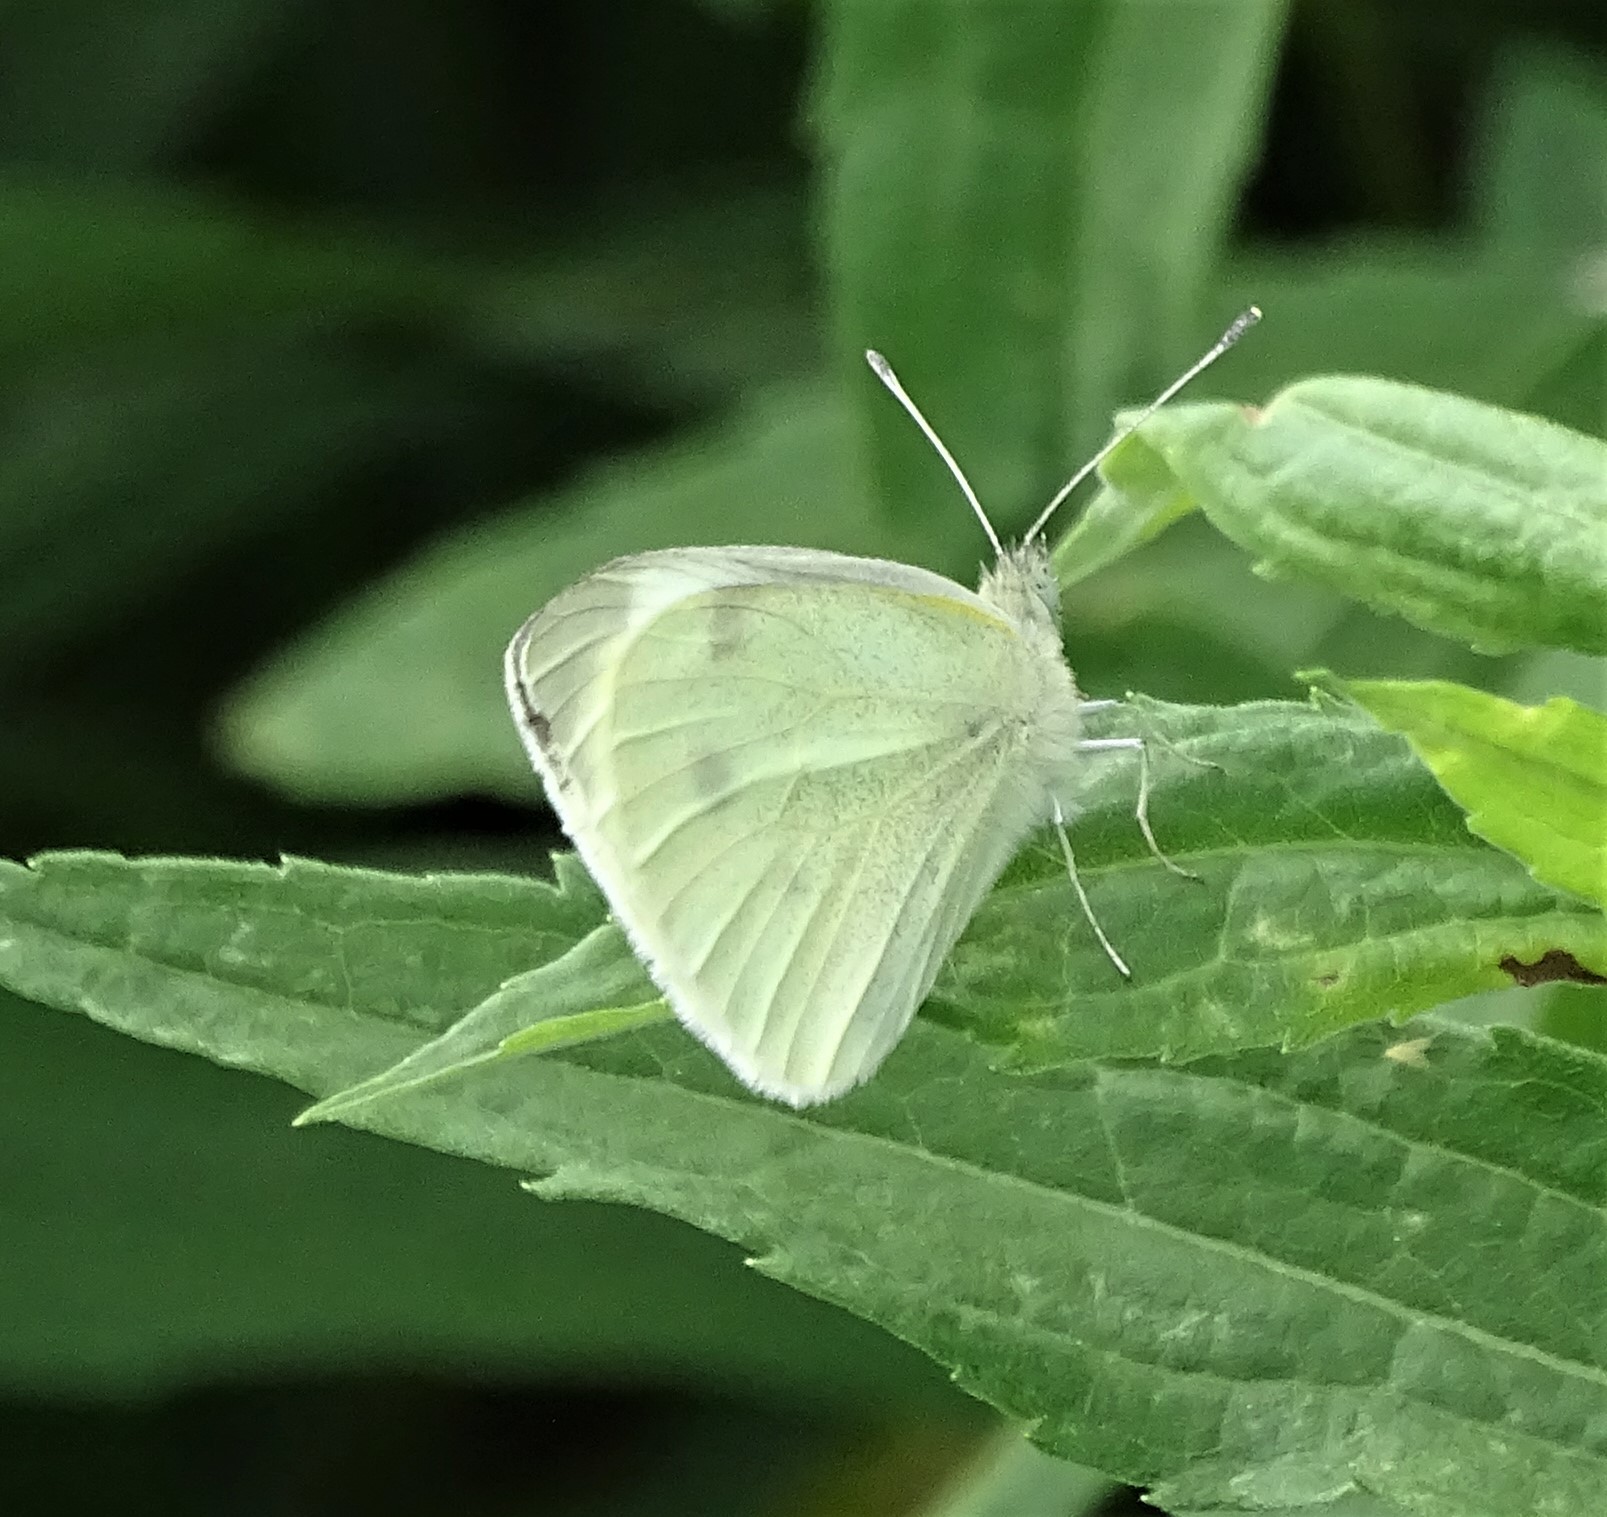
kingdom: Animalia
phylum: Arthropoda
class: Insecta
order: Lepidoptera
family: Pieridae
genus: Pieris
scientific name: Pieris rapae
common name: Small white
